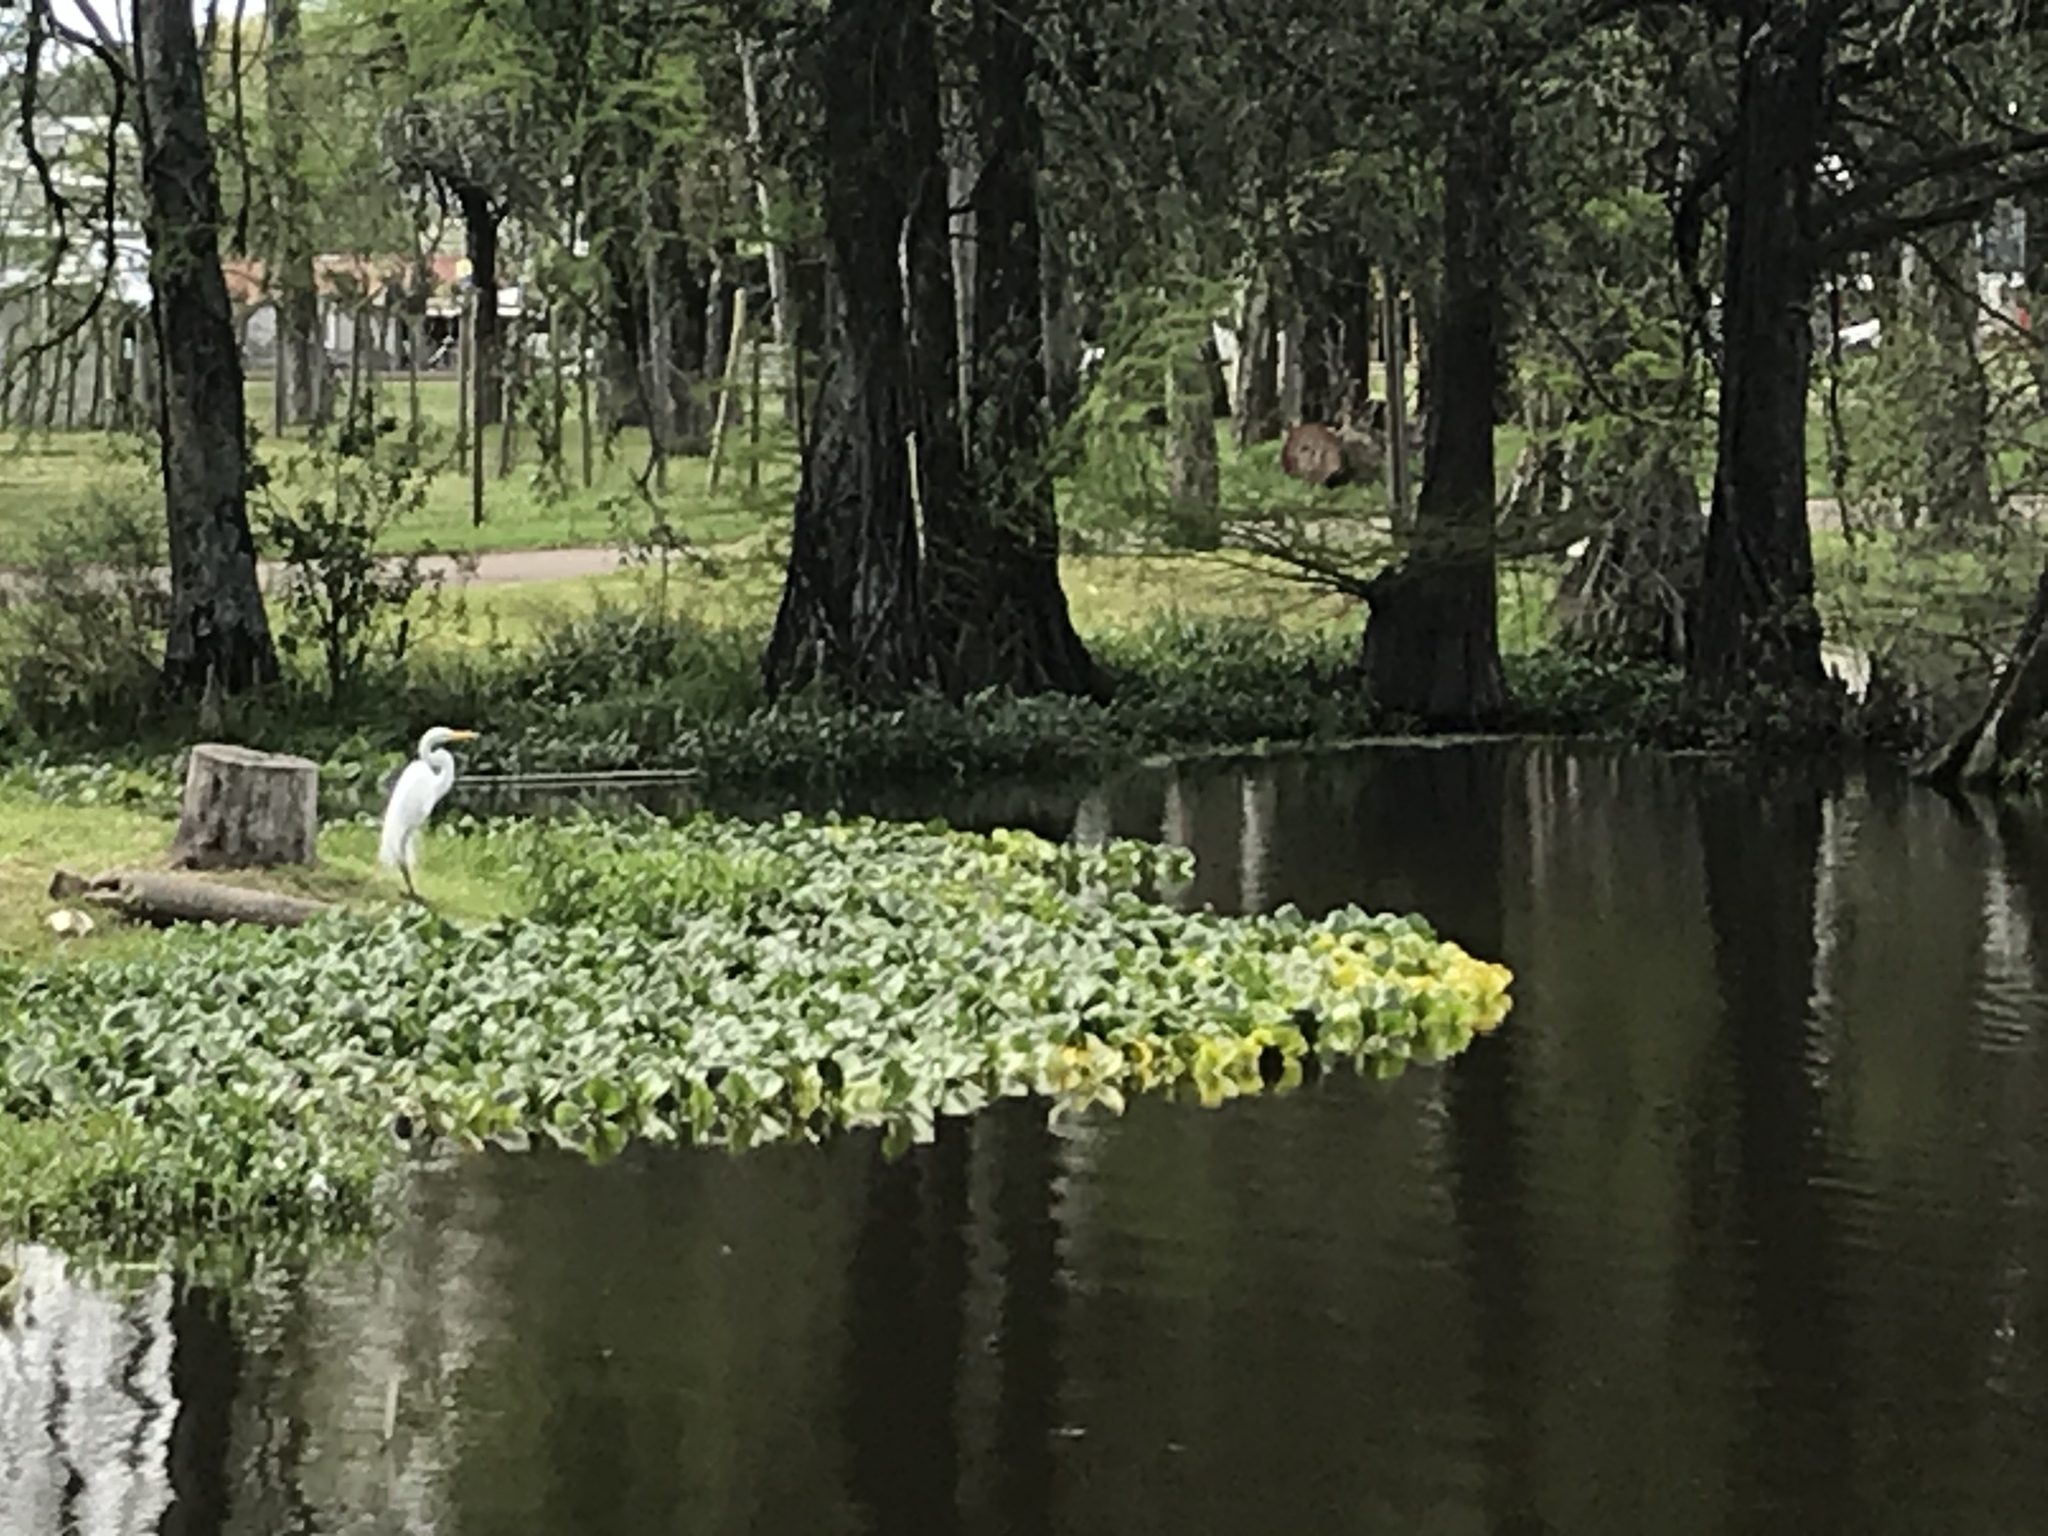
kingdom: Animalia
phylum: Chordata
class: Aves
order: Pelecaniformes
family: Ardeidae
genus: Ardea
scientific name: Ardea alba
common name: Great egret
